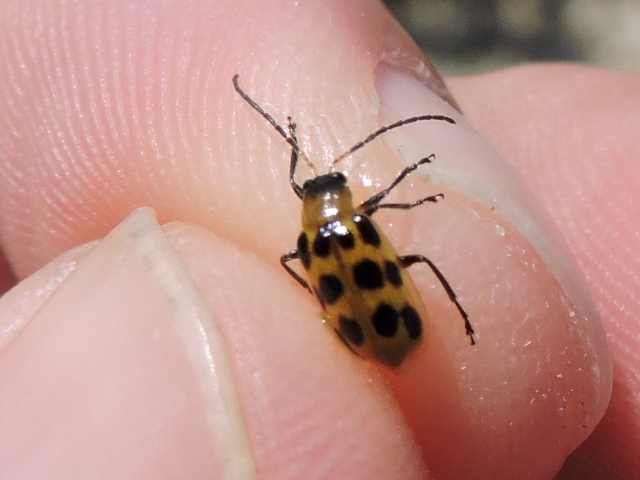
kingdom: Animalia
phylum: Arthropoda
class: Insecta
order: Coleoptera
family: Chrysomelidae
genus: Diabrotica
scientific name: Diabrotica undecimpunctata
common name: Spotted cucumber beetle
